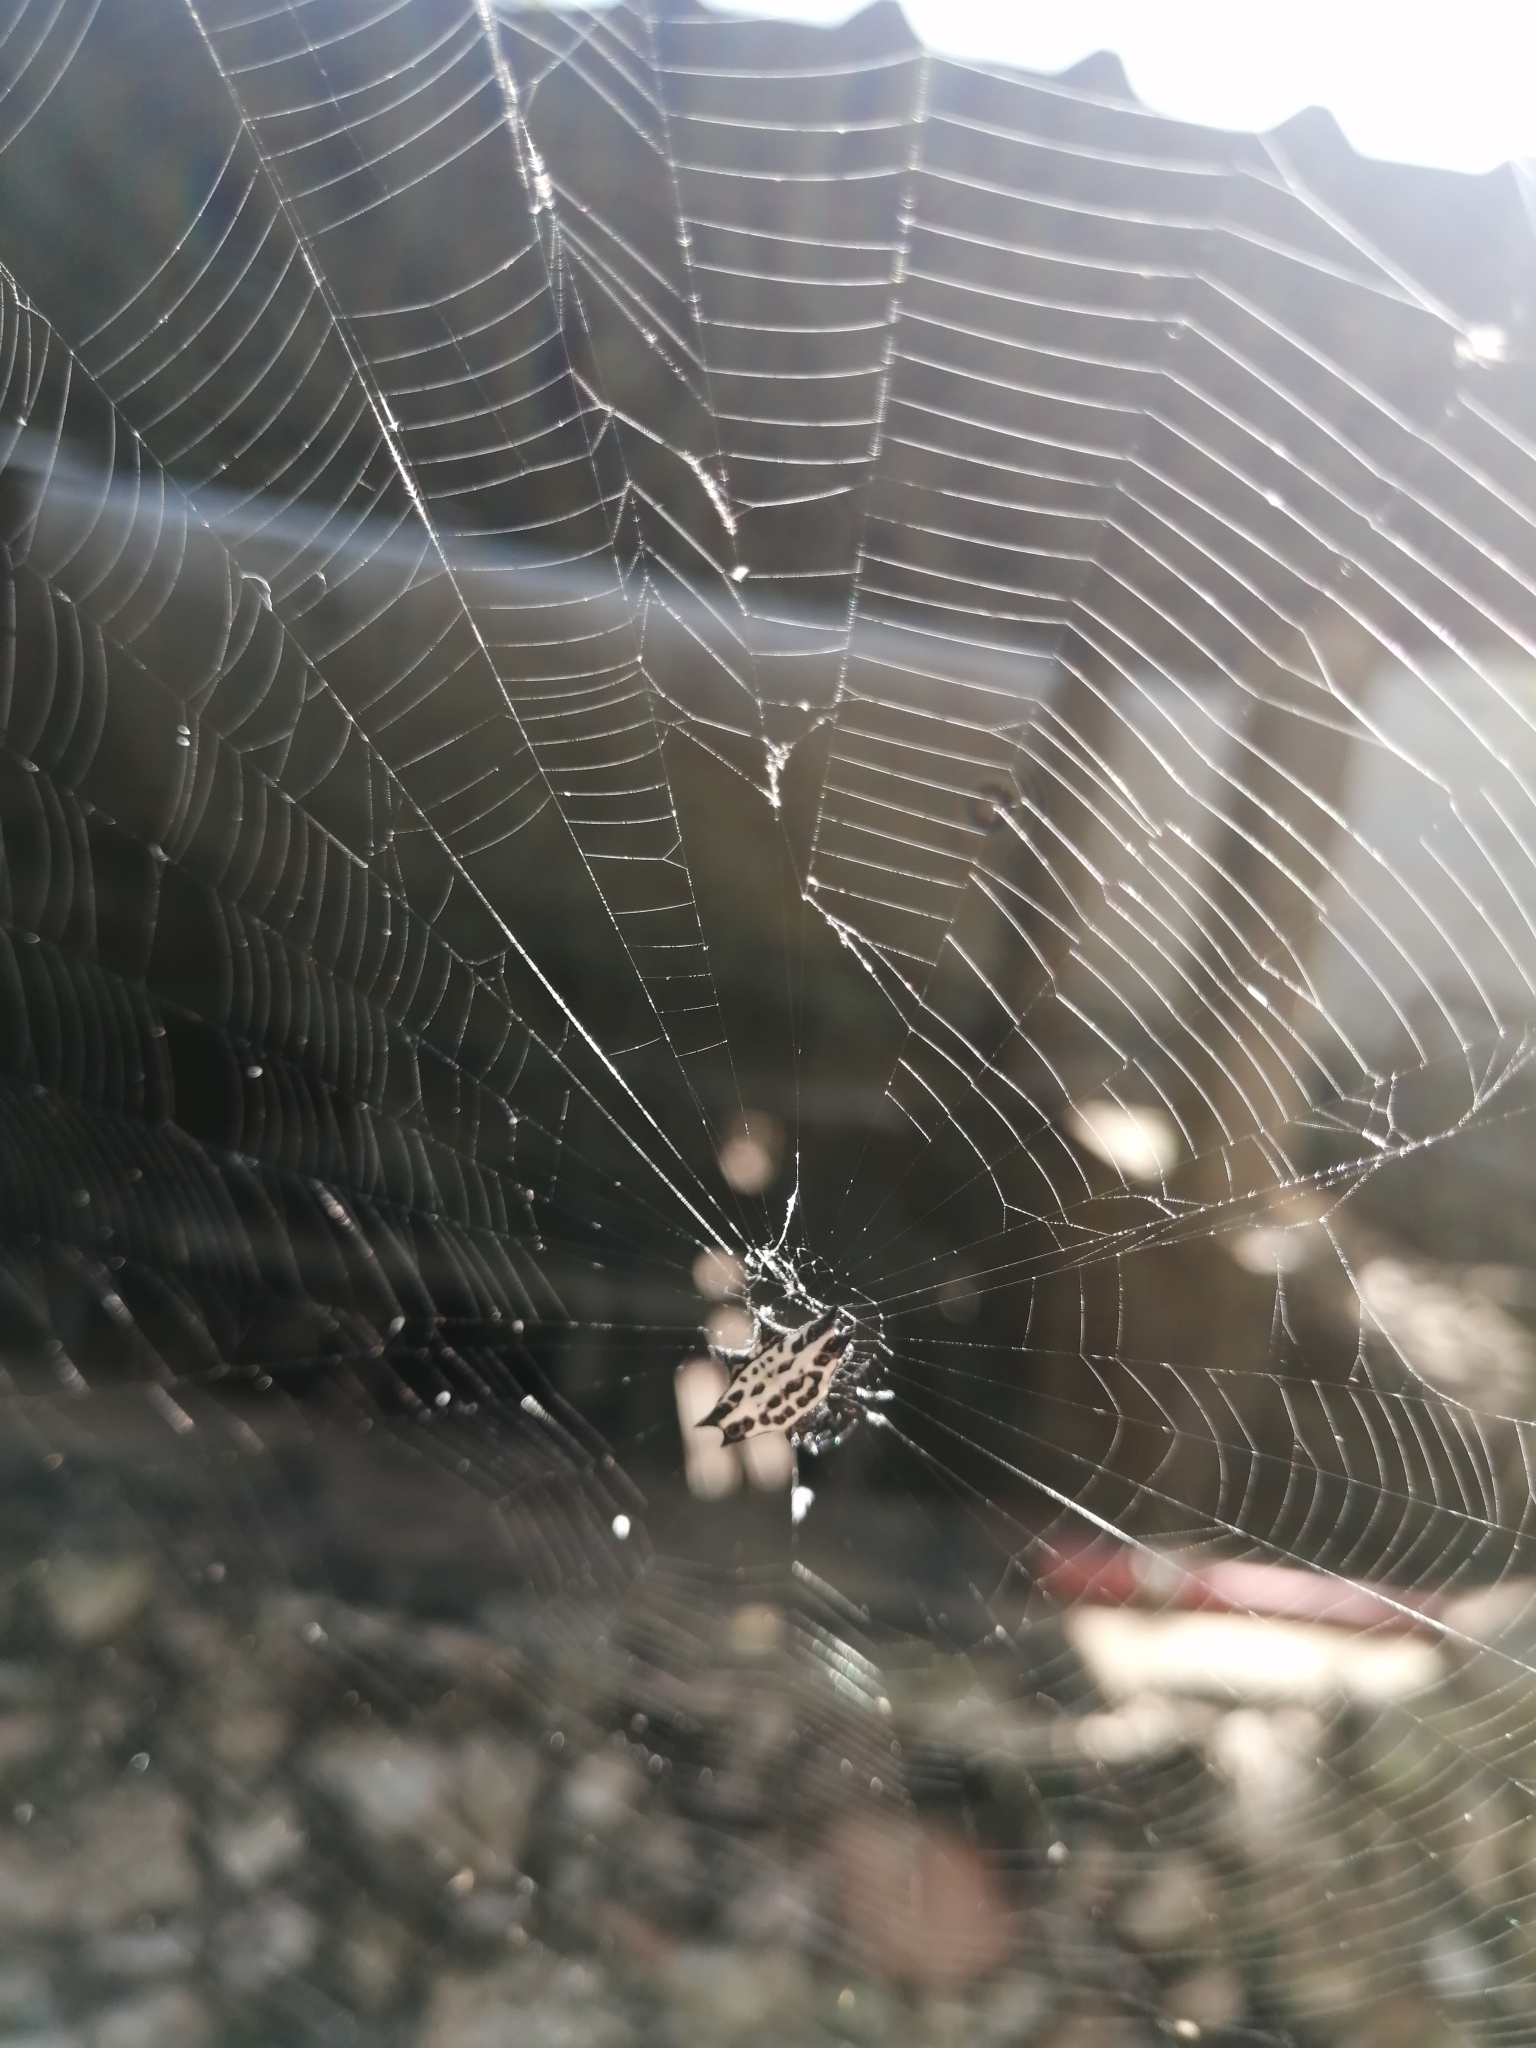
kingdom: Animalia
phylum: Arthropoda
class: Arachnida
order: Araneae
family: Araneidae
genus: Gasteracantha
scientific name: Gasteracantha cancriformis
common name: Orb weavers
